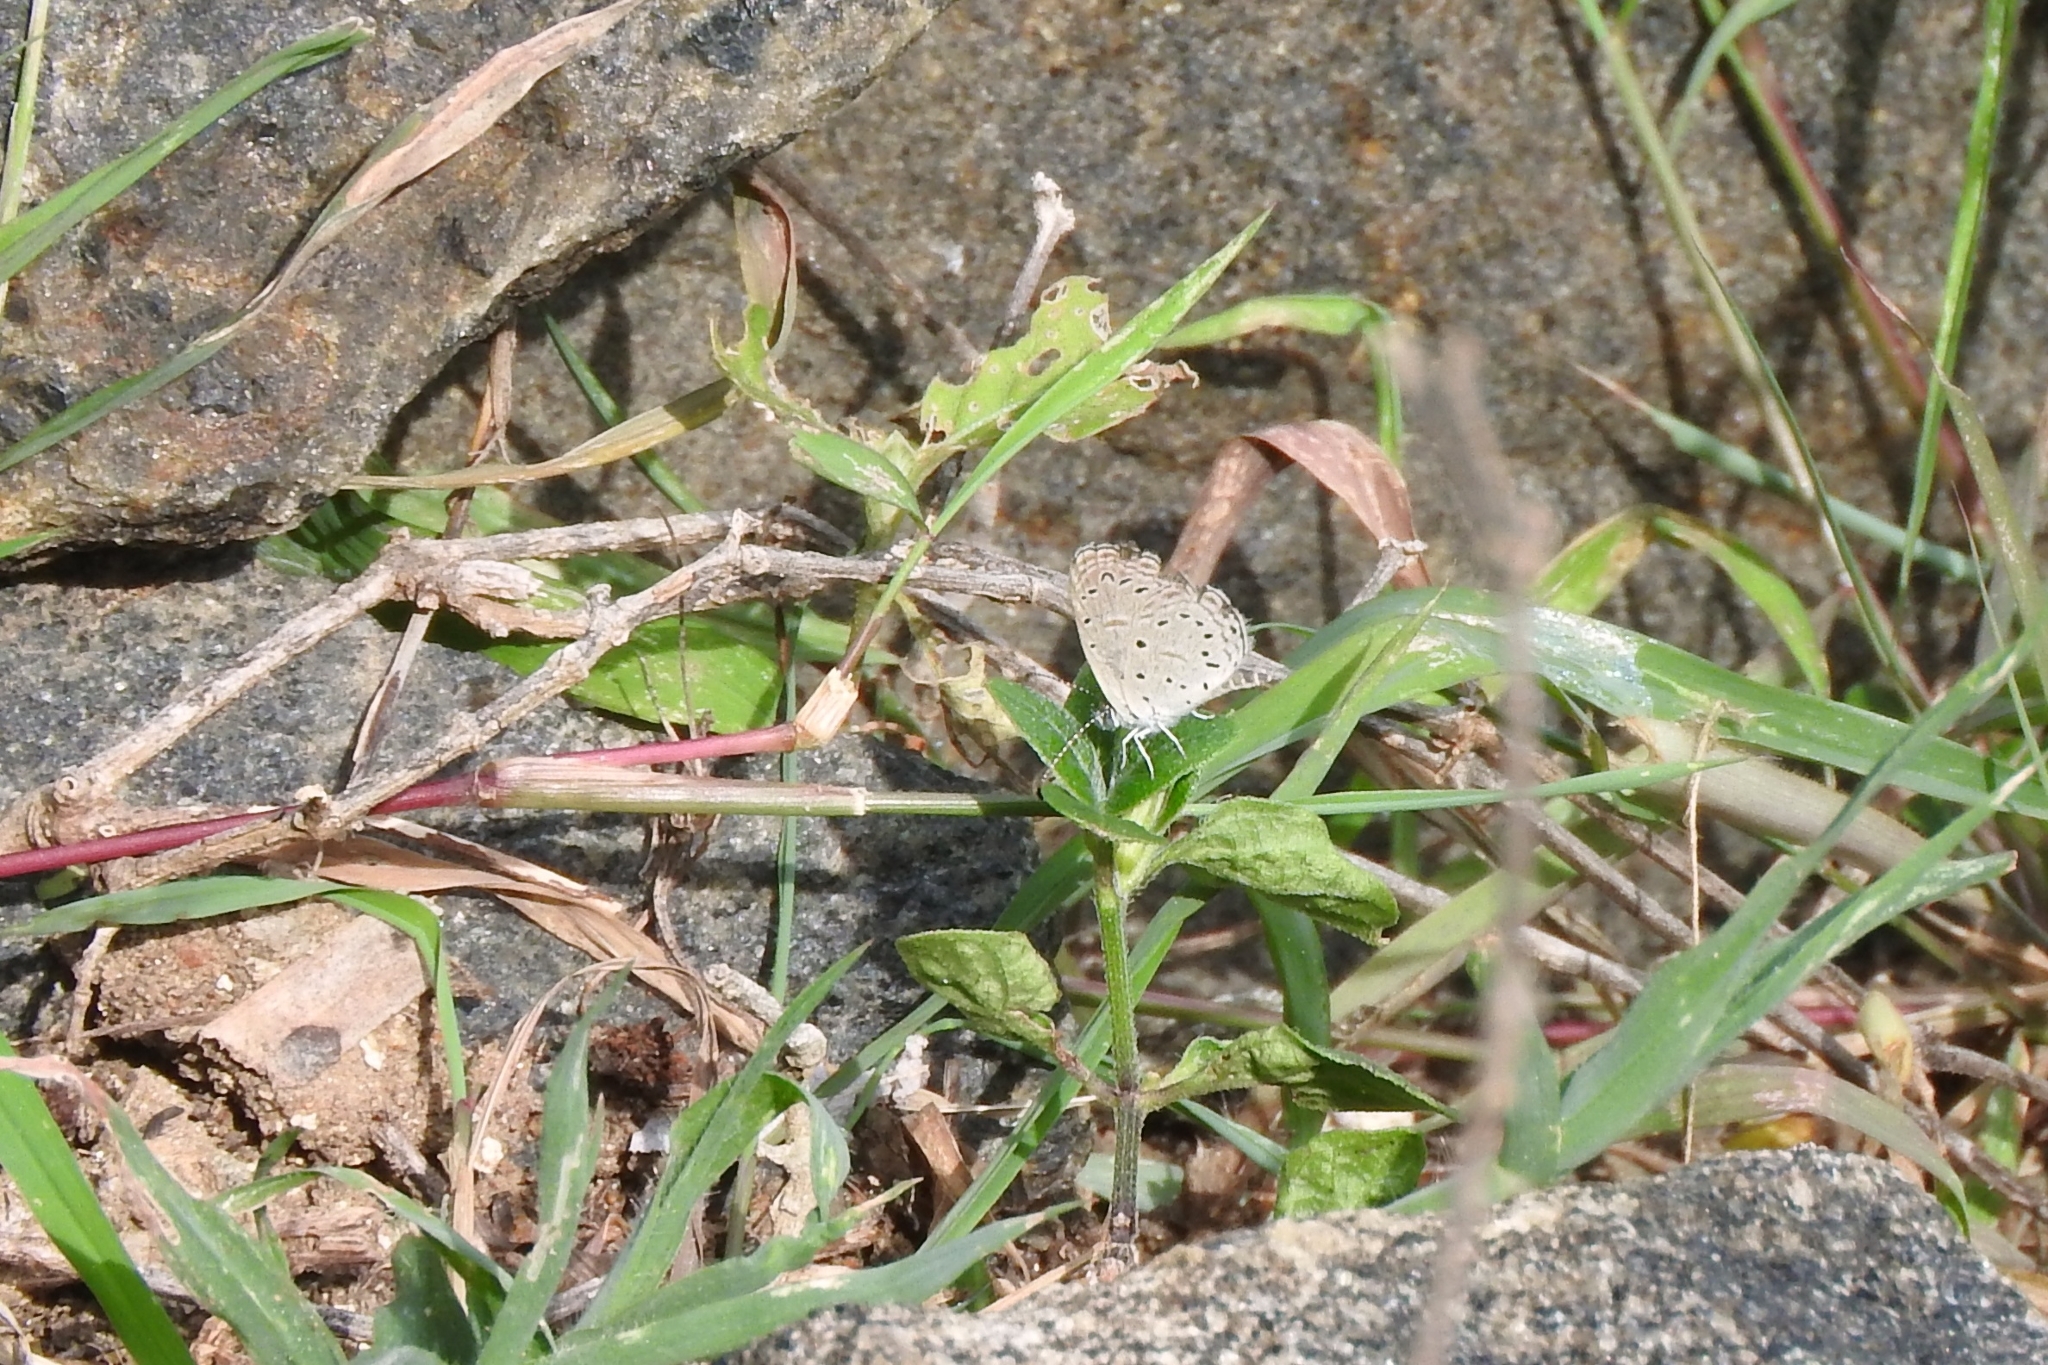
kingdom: Animalia
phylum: Arthropoda
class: Insecta
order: Lepidoptera
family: Lycaenidae
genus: Zizula
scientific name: Zizula hylax
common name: Gaika blue
